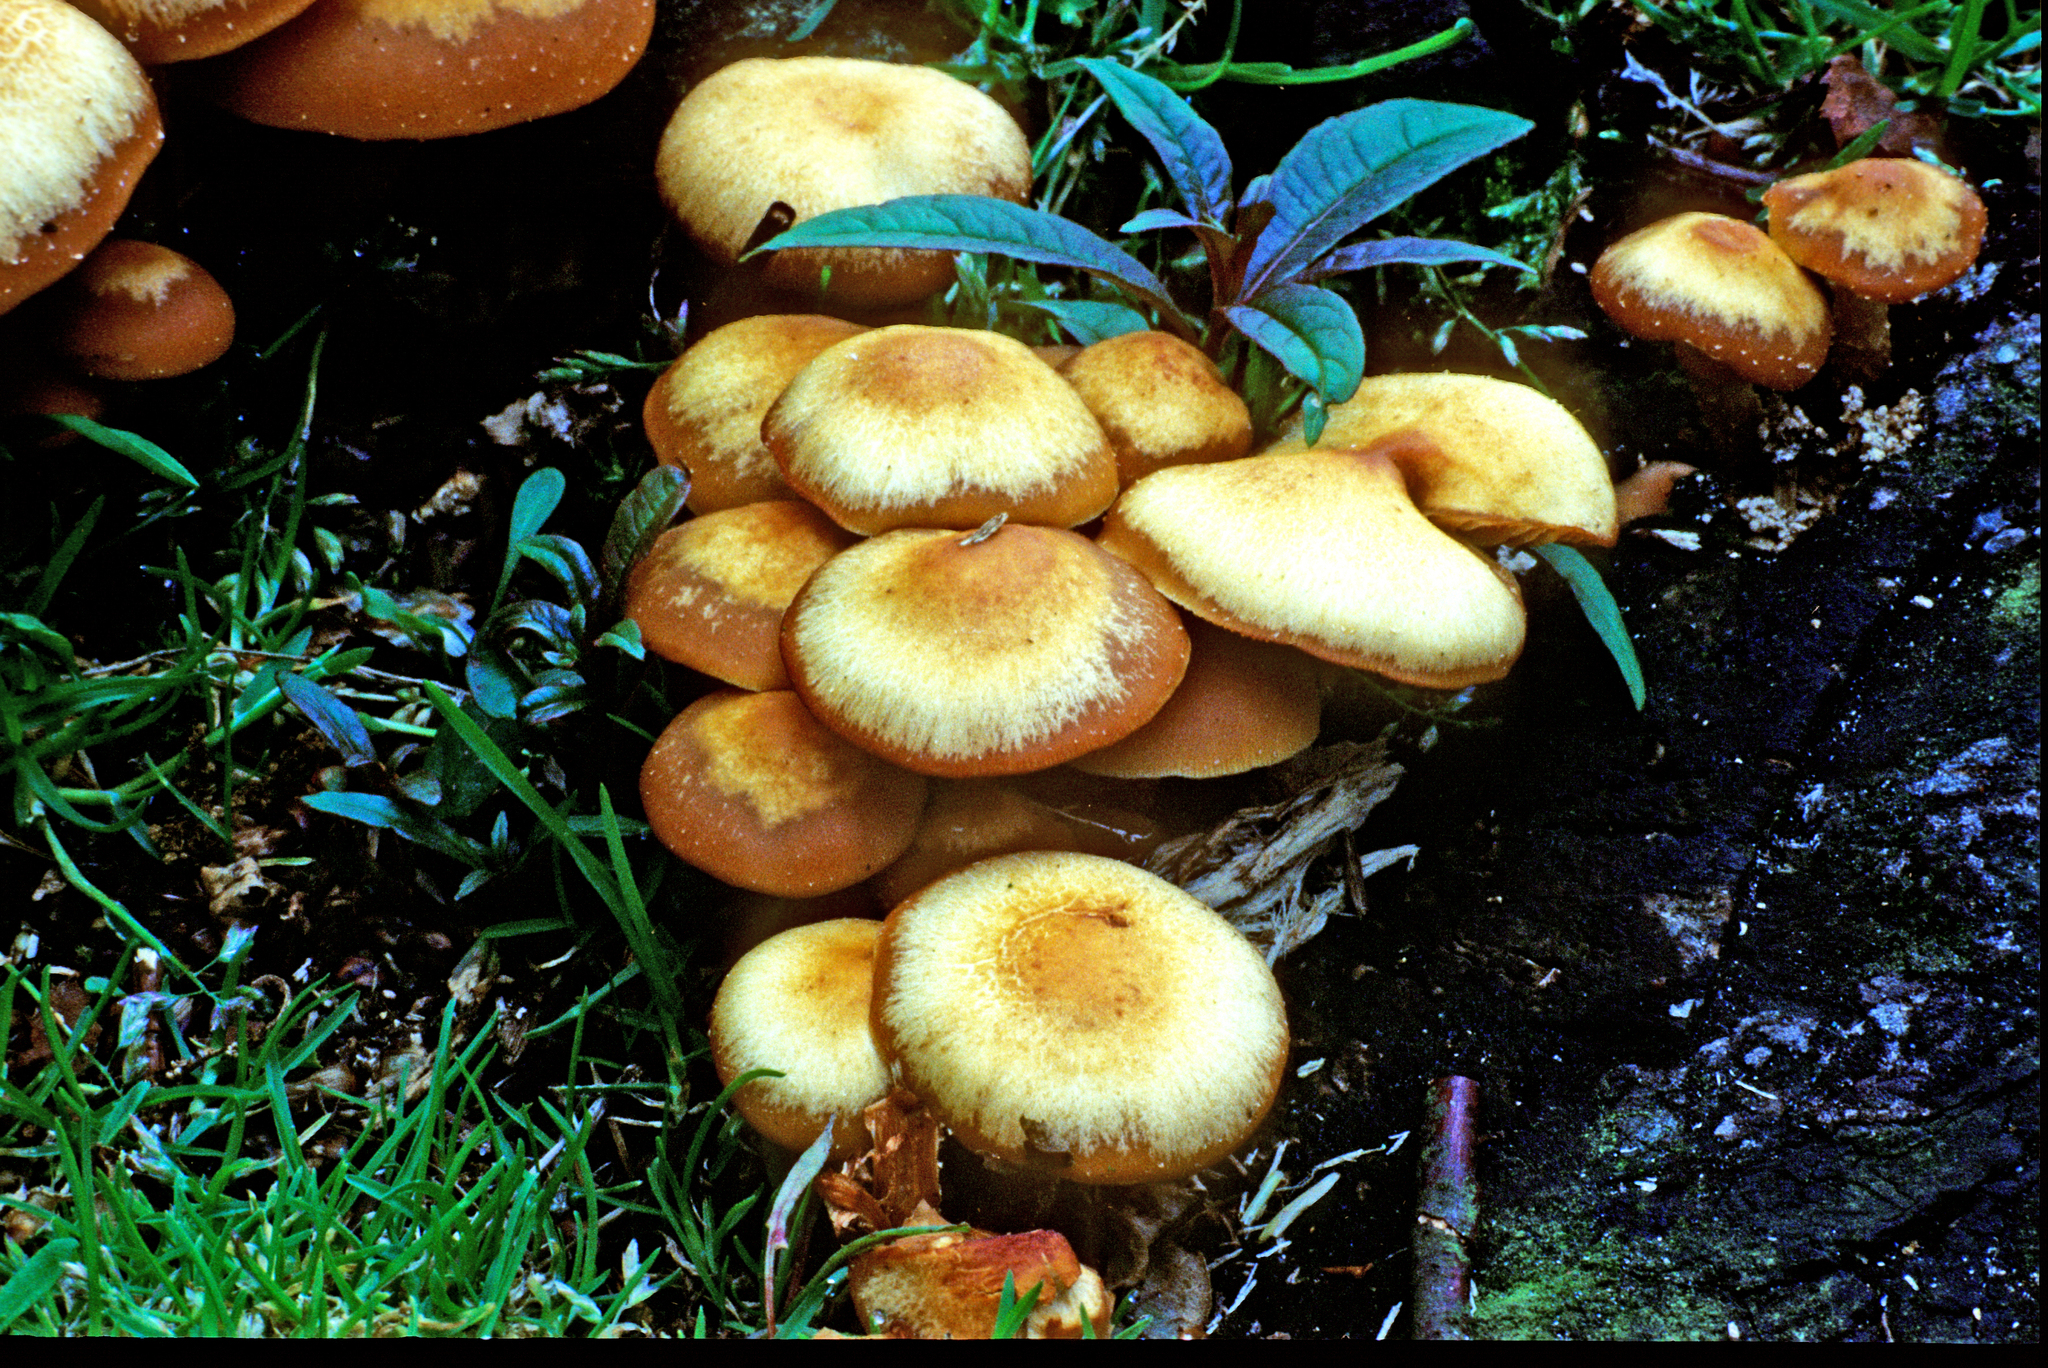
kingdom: Fungi
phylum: Basidiomycota
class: Agaricomycetes
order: Agaricales
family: Strophariaceae
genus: Kuehneromyces
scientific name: Kuehneromyces mutabilis
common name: Sheathed woodtuft
